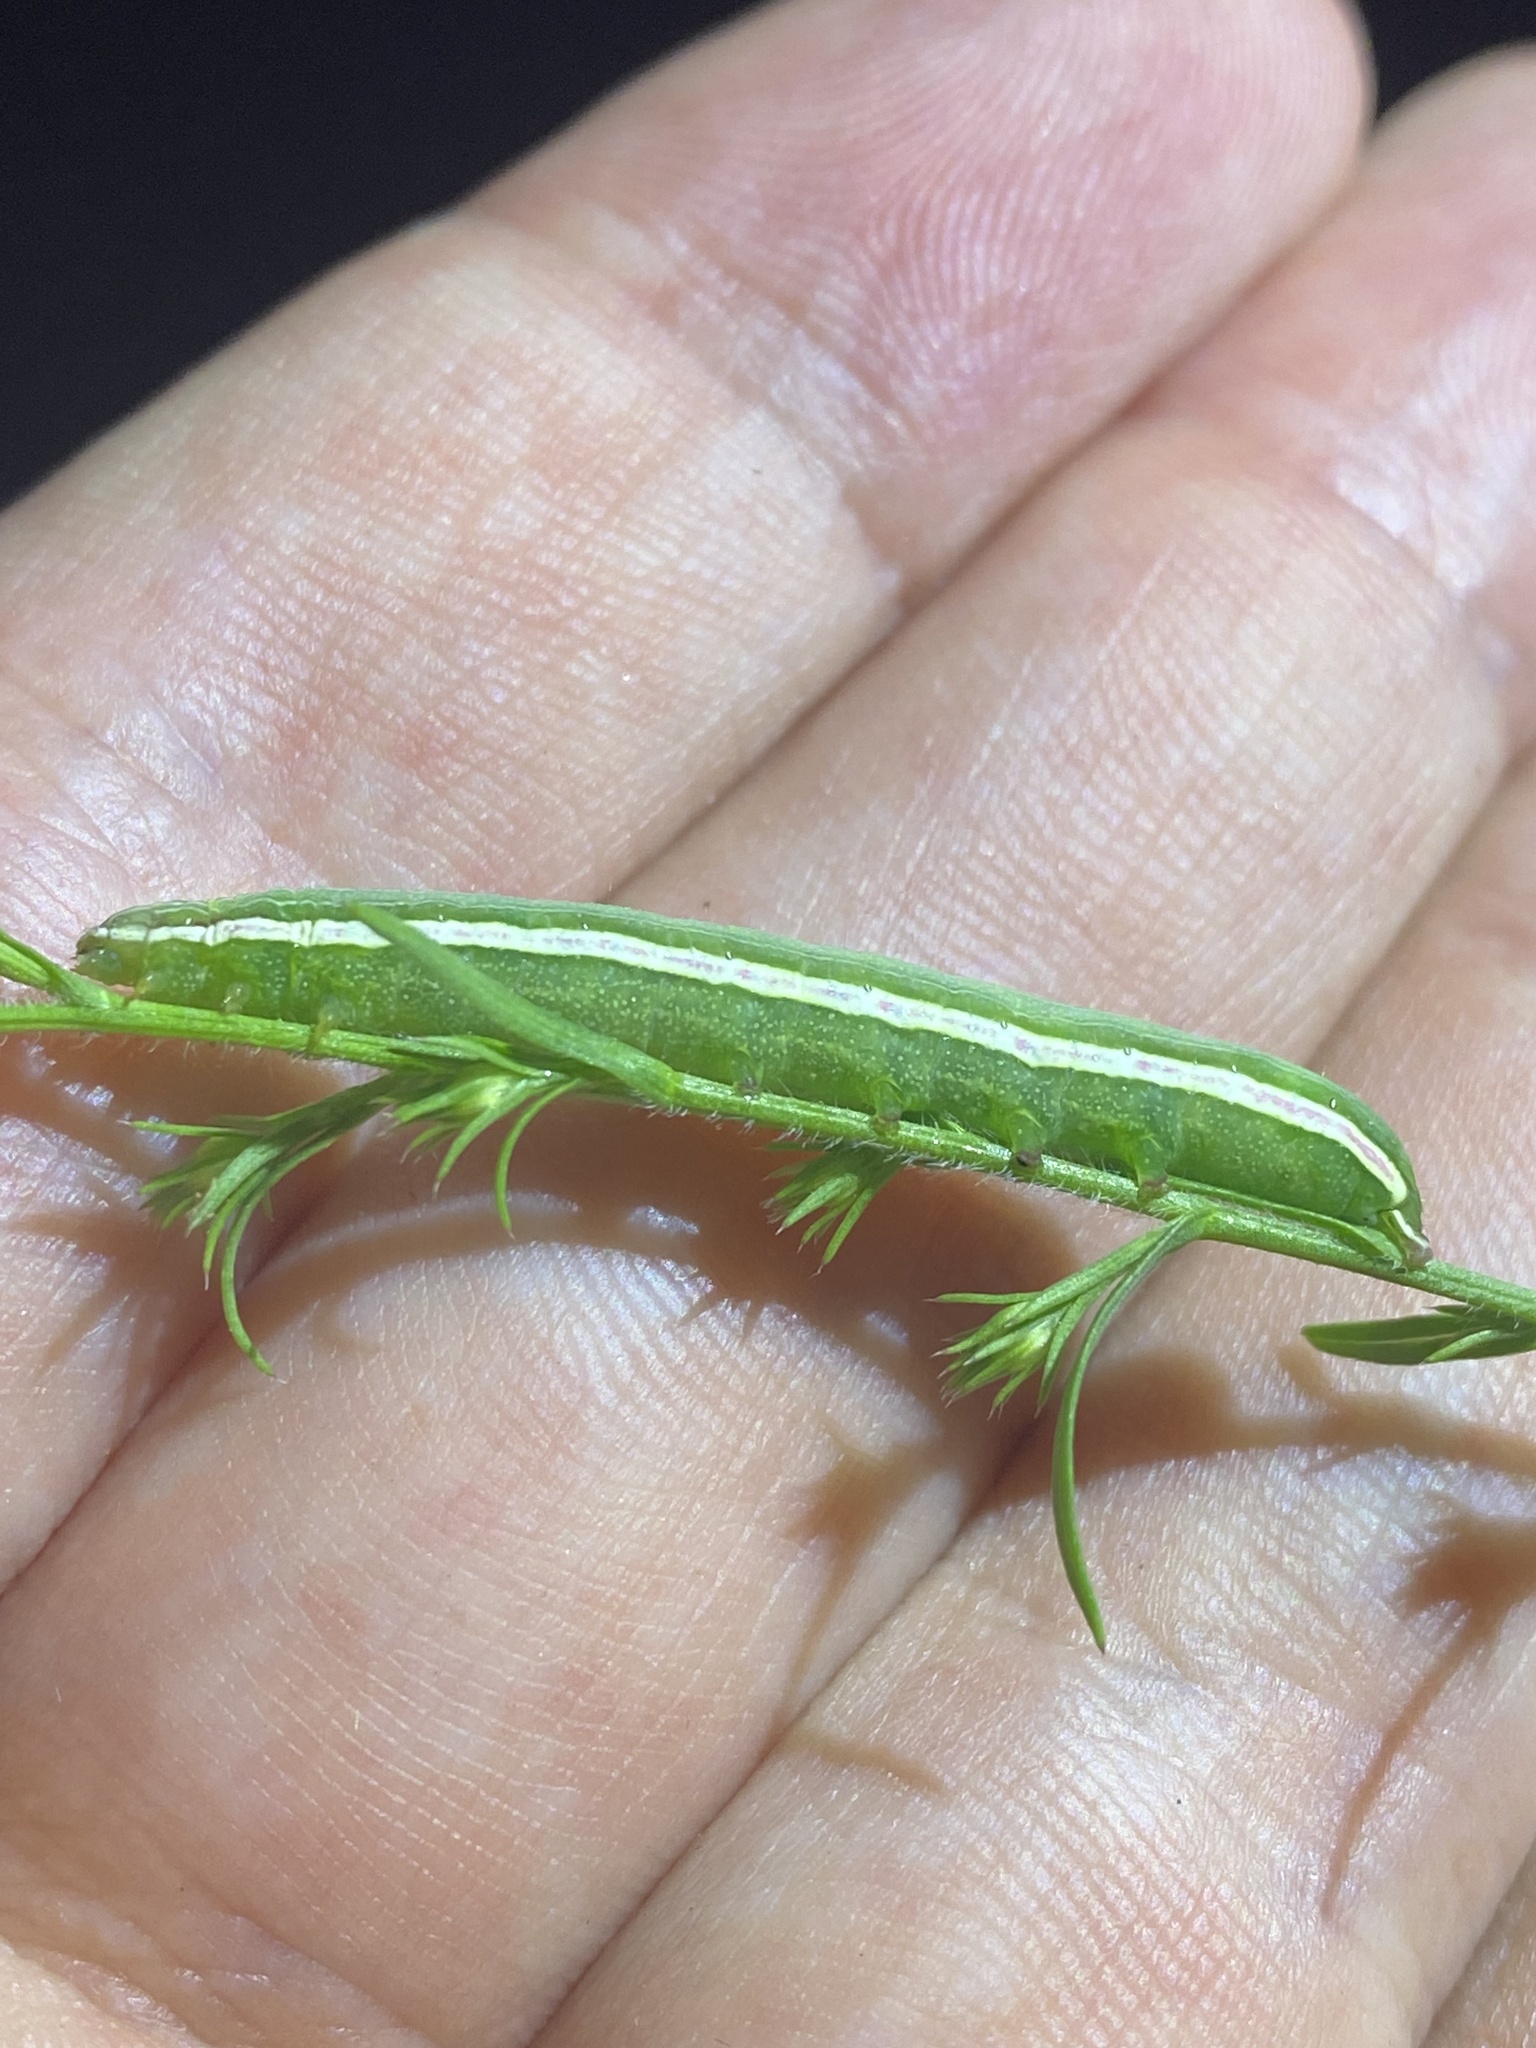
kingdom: Animalia
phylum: Arthropoda
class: Insecta
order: Lepidoptera
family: Noctuidae
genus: Condica
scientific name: Condica videns
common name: White-dotted groundling
